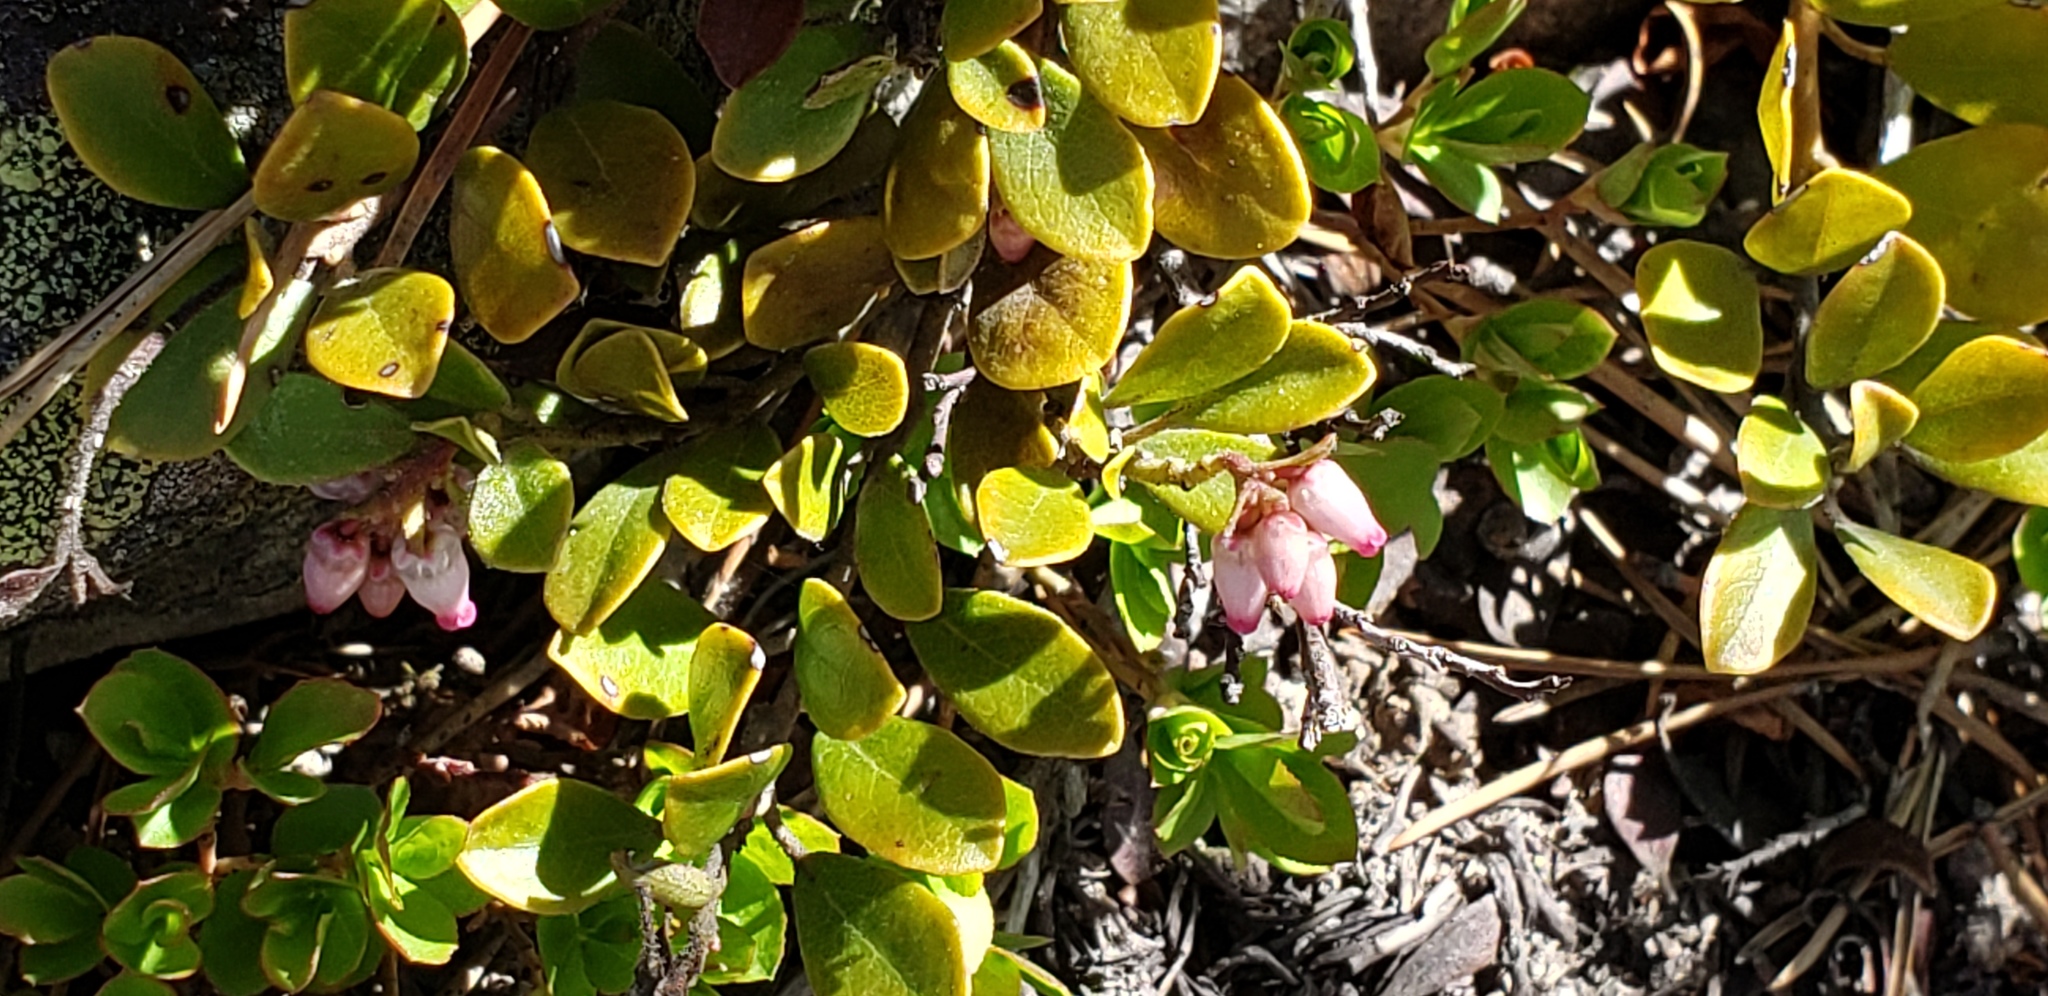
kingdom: Plantae
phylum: Tracheophyta
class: Magnoliopsida
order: Ericales
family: Ericaceae
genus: Arctostaphylos
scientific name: Arctostaphylos uva-ursi
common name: Bearberry
